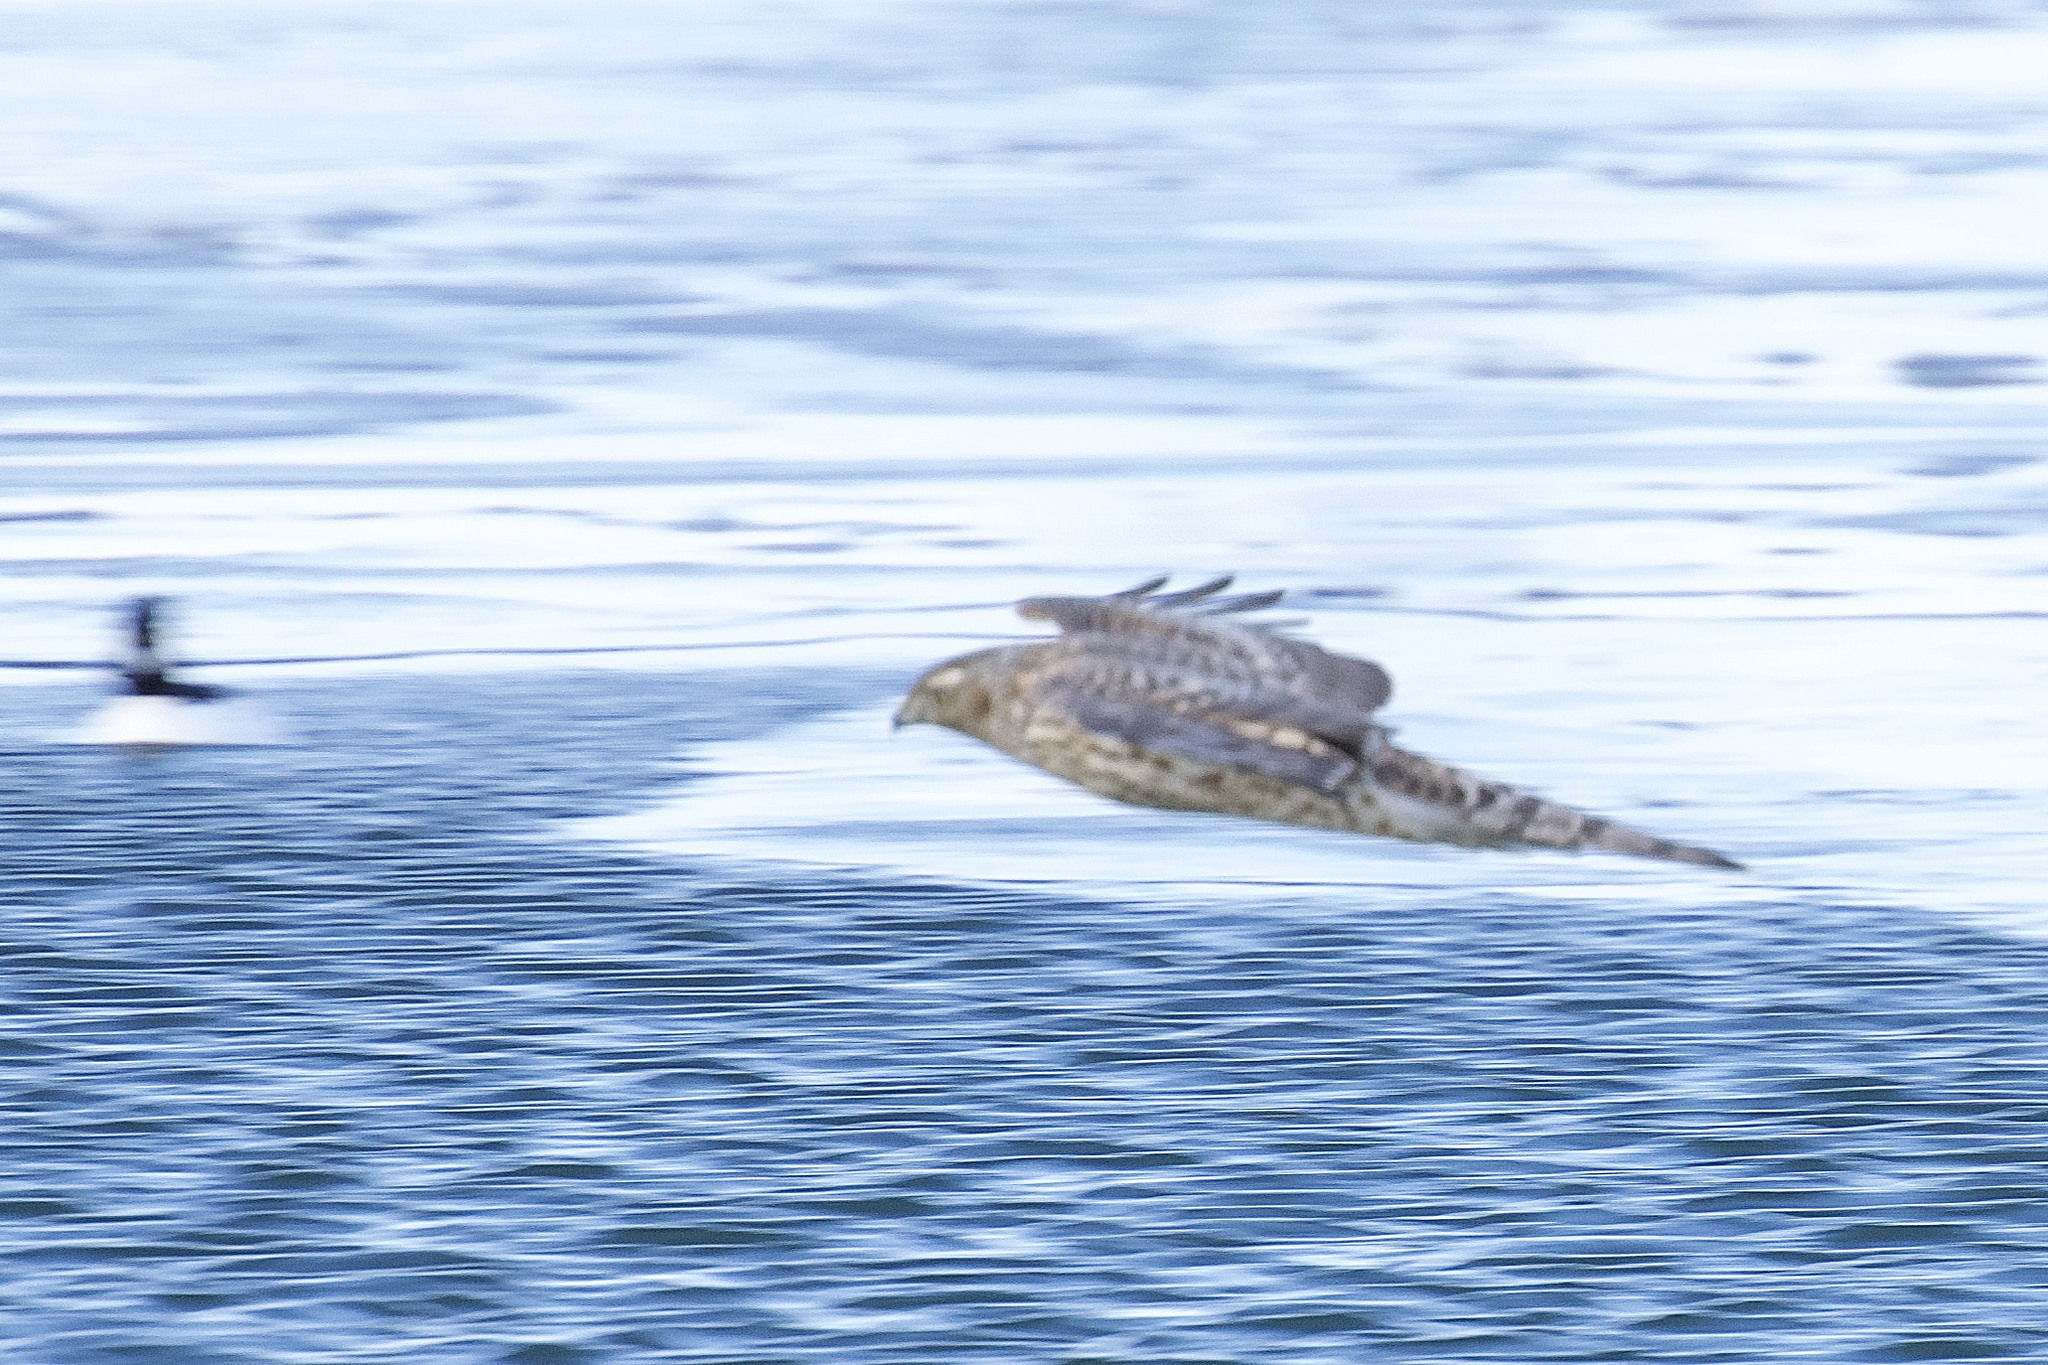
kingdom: Animalia
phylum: Chordata
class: Aves
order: Accipitriformes
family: Accipitridae
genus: Accipiter
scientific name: Accipiter gentilis
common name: Northern goshawk
